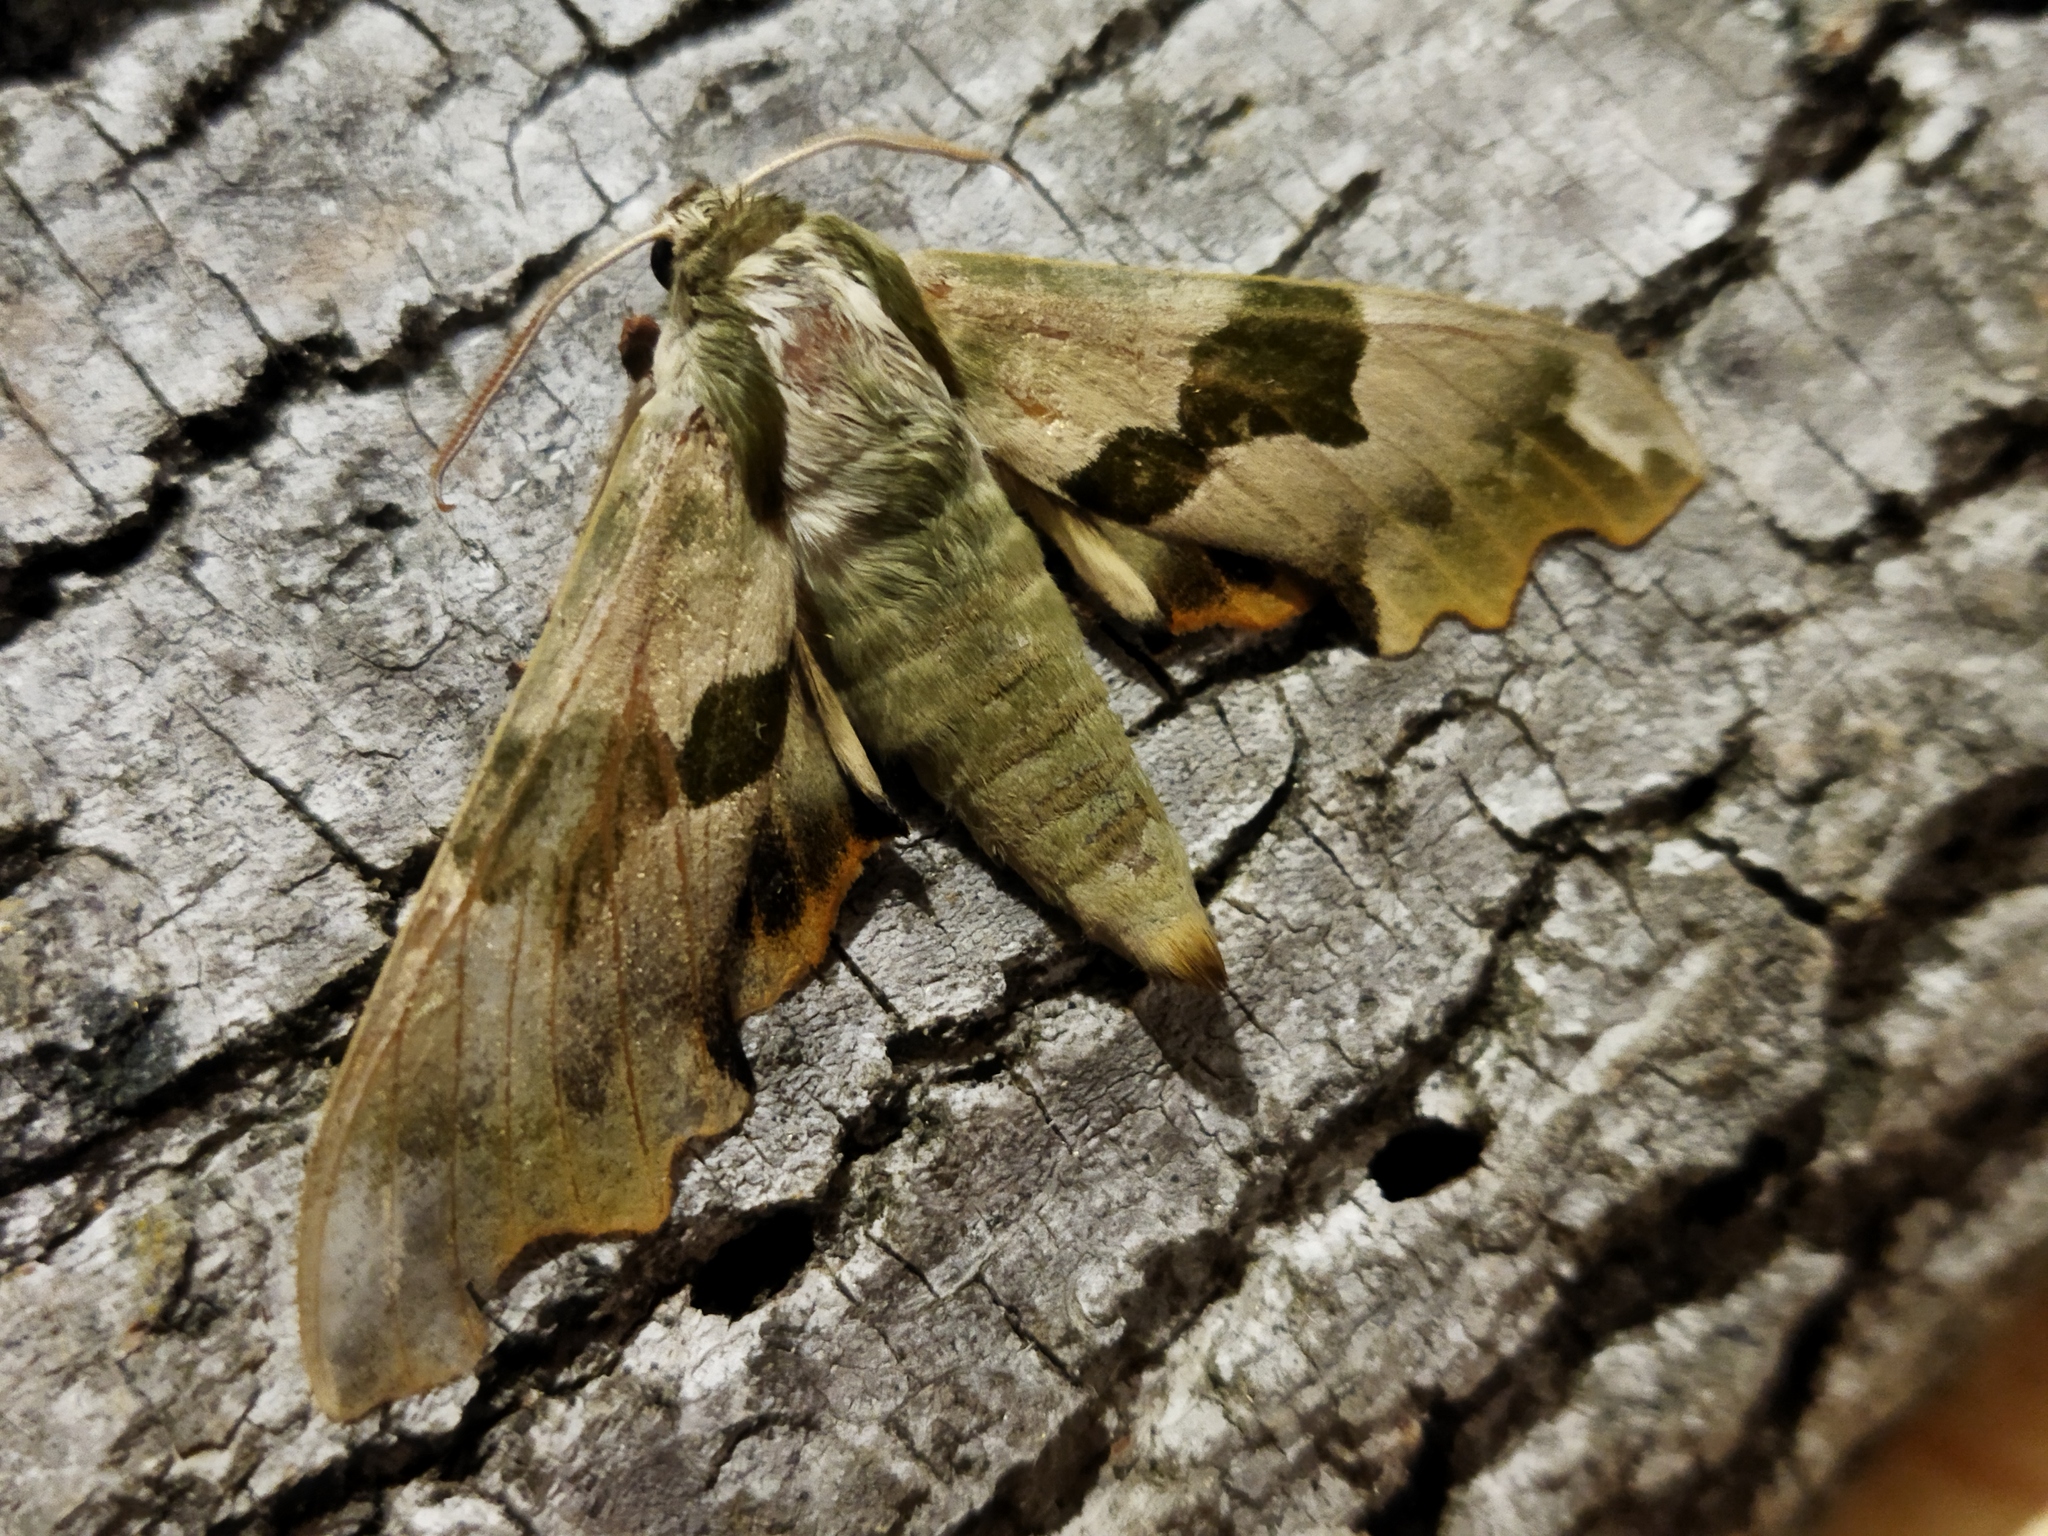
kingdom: Animalia
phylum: Arthropoda
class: Insecta
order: Lepidoptera
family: Sphingidae
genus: Mimas
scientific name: Mimas tiliae
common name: Lime hawk-moth
